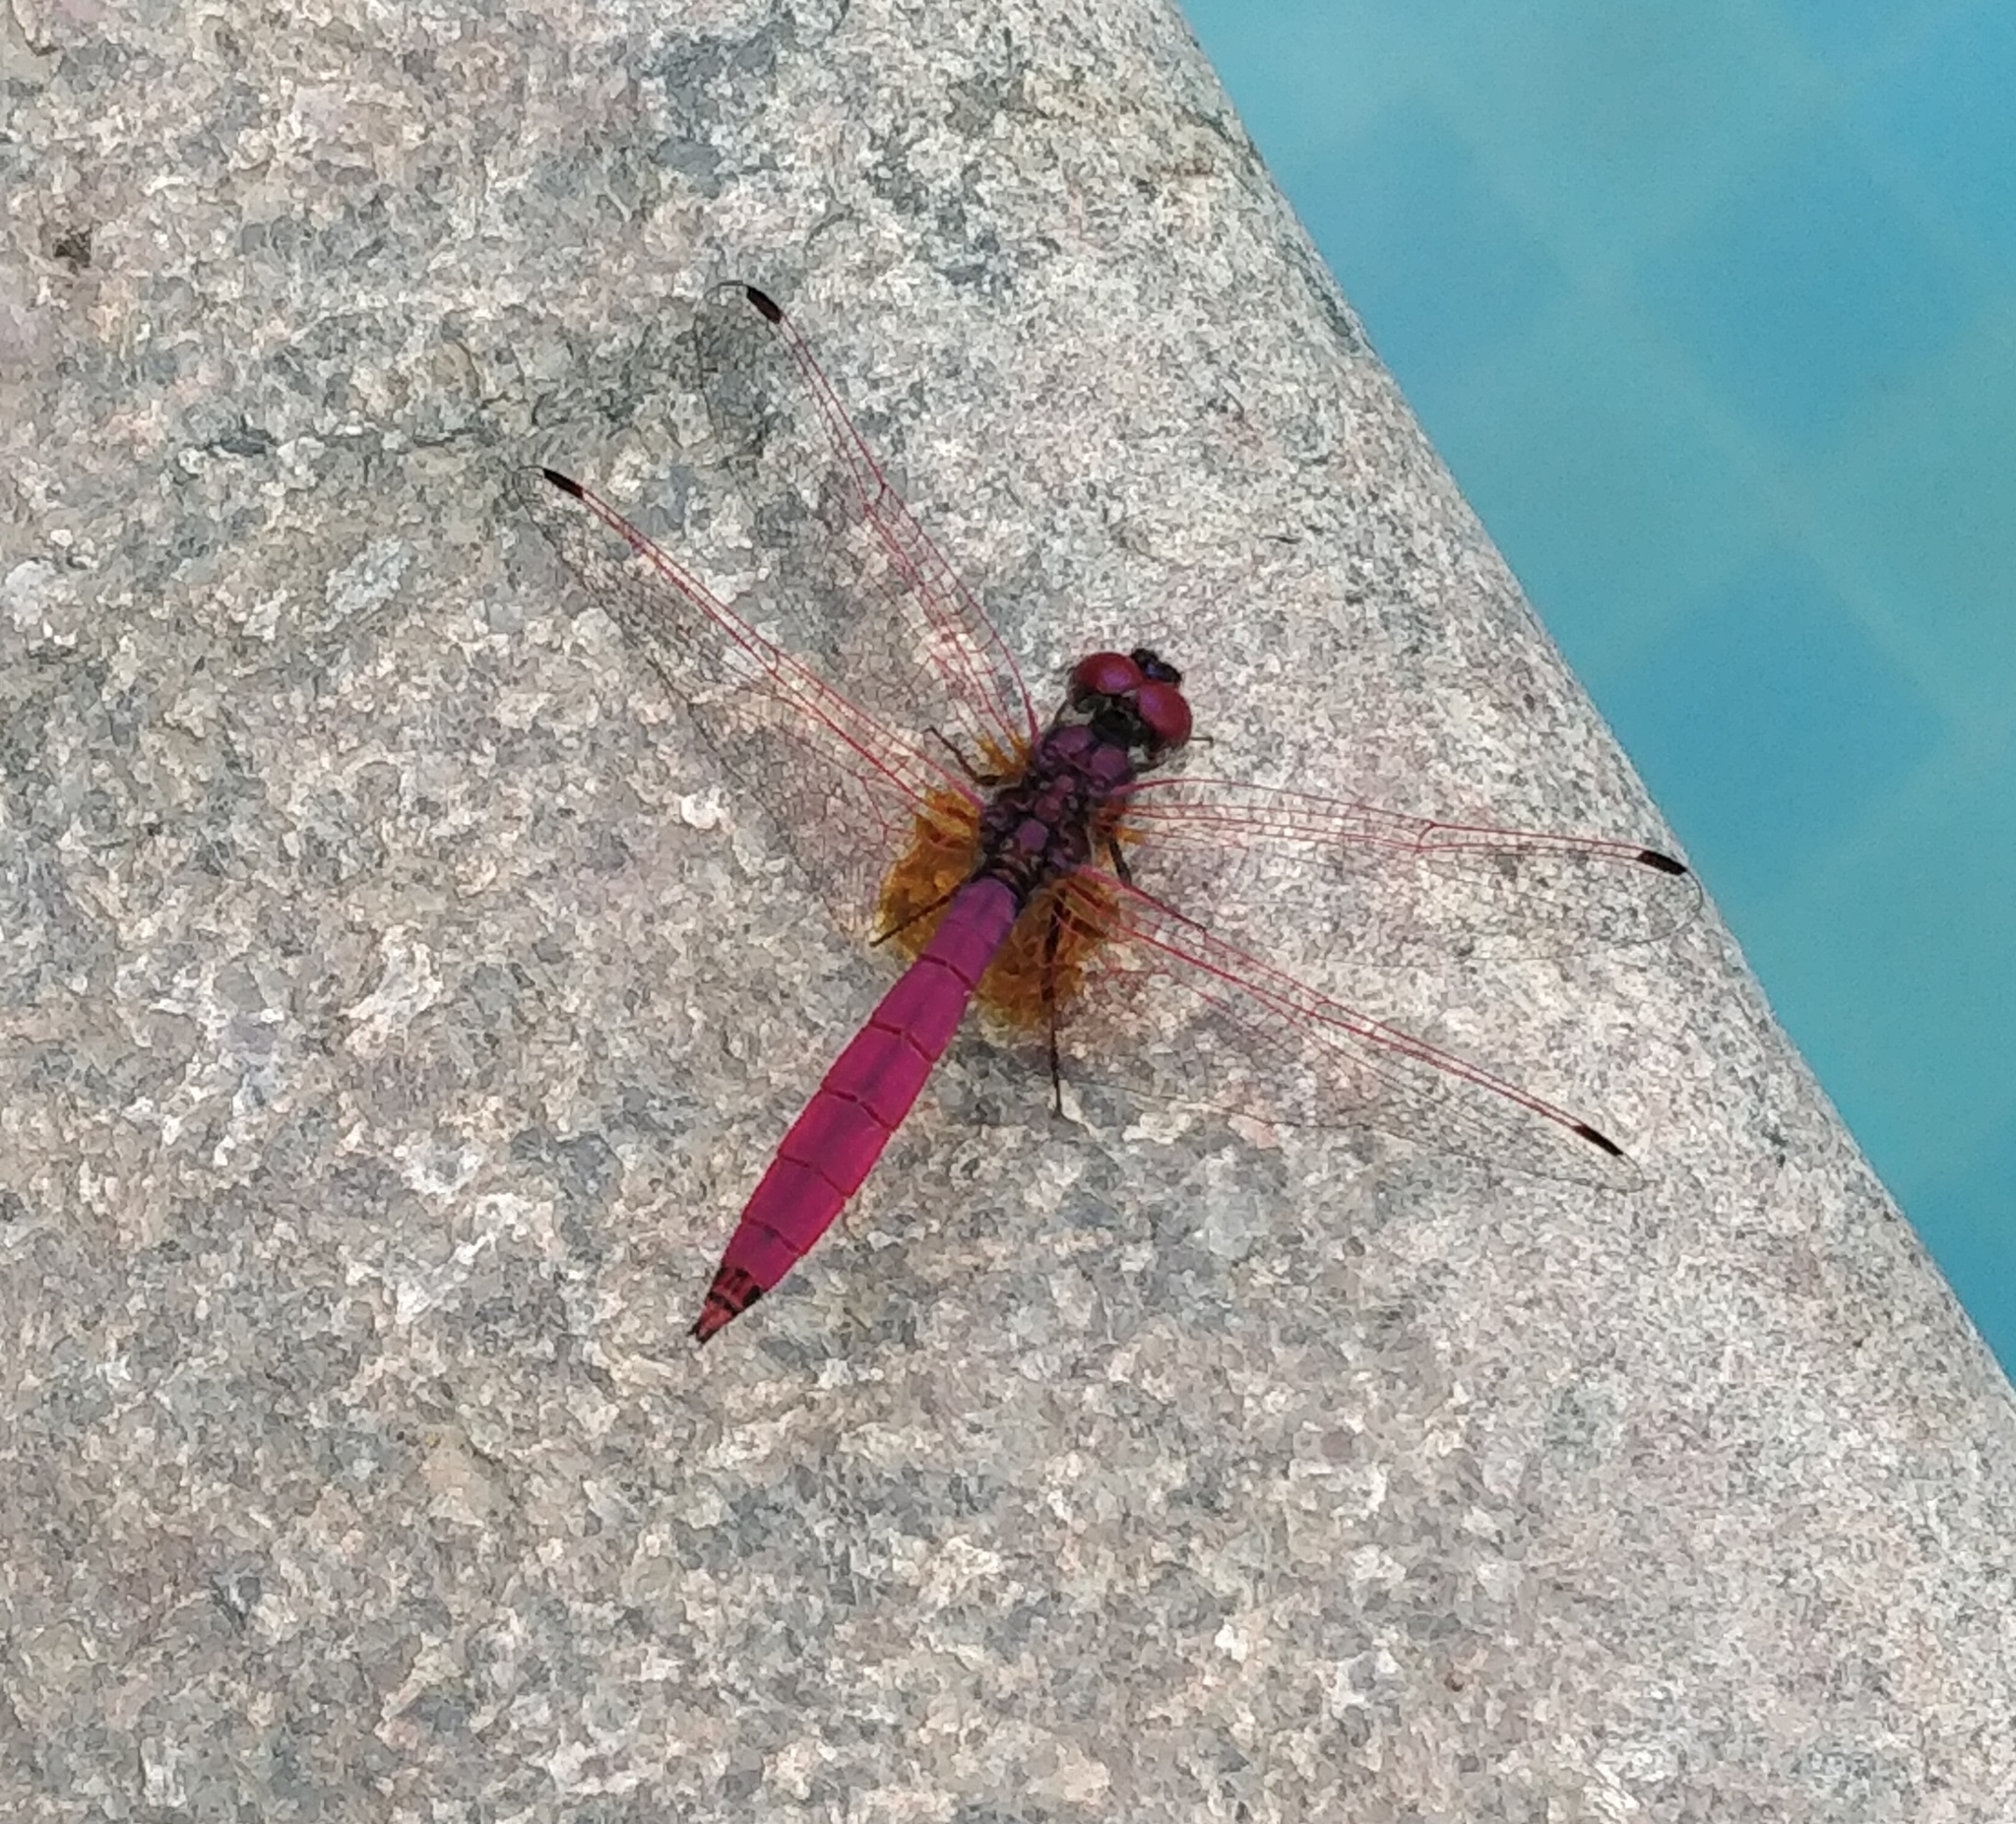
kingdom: Animalia
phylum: Arthropoda
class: Insecta
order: Odonata
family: Libellulidae
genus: Trithemis
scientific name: Trithemis aurora
